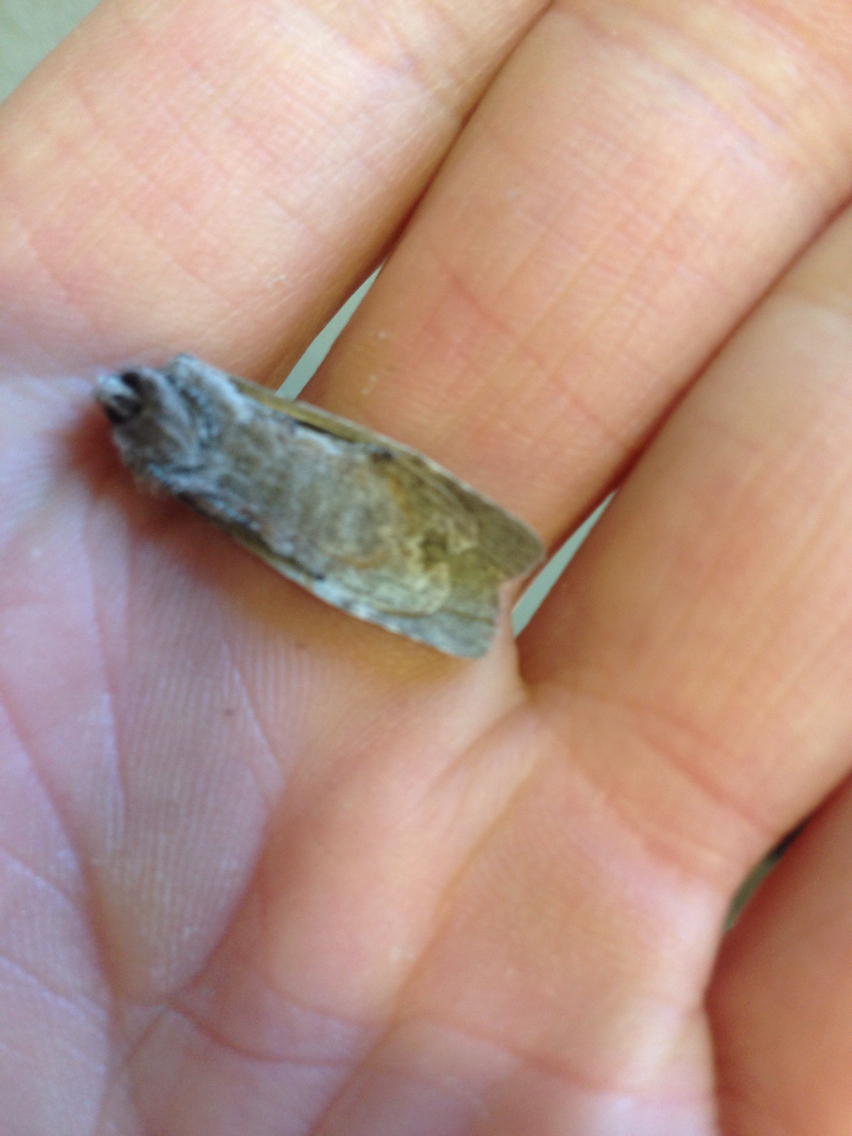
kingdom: Animalia
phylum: Arthropoda
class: Insecta
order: Lepidoptera
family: Noctuidae
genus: Lithophane
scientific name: Lithophane grotei
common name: Grote's pinion moth
